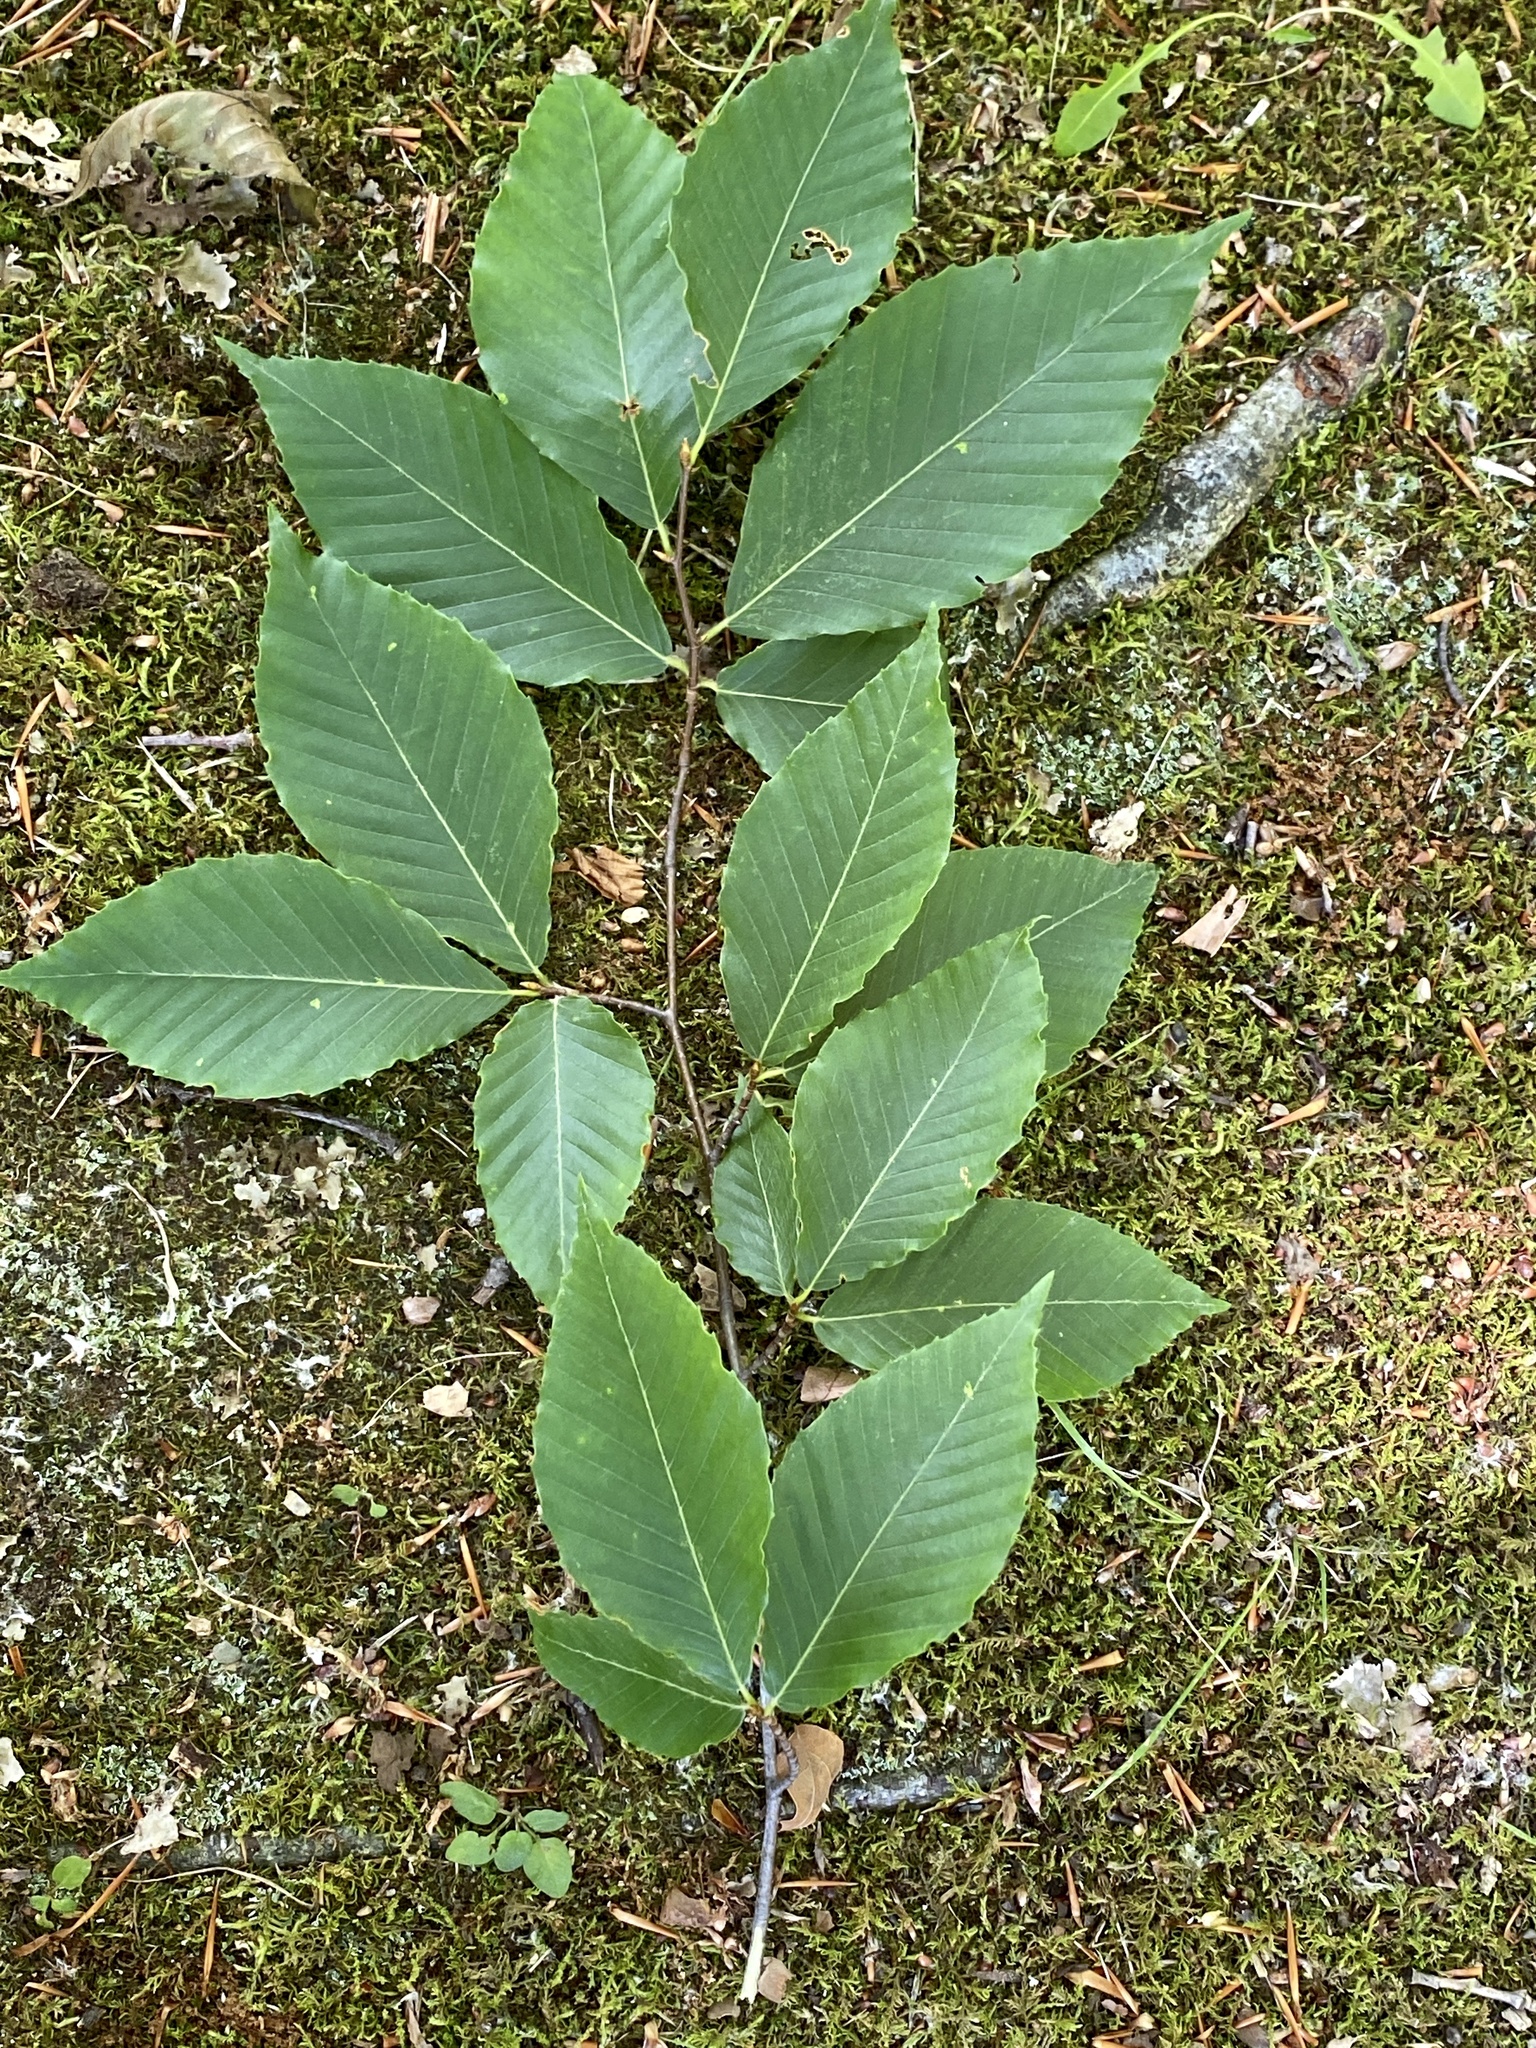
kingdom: Plantae
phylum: Tracheophyta
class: Magnoliopsida
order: Fagales
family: Fagaceae
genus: Fagus
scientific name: Fagus grandifolia
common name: American beech
